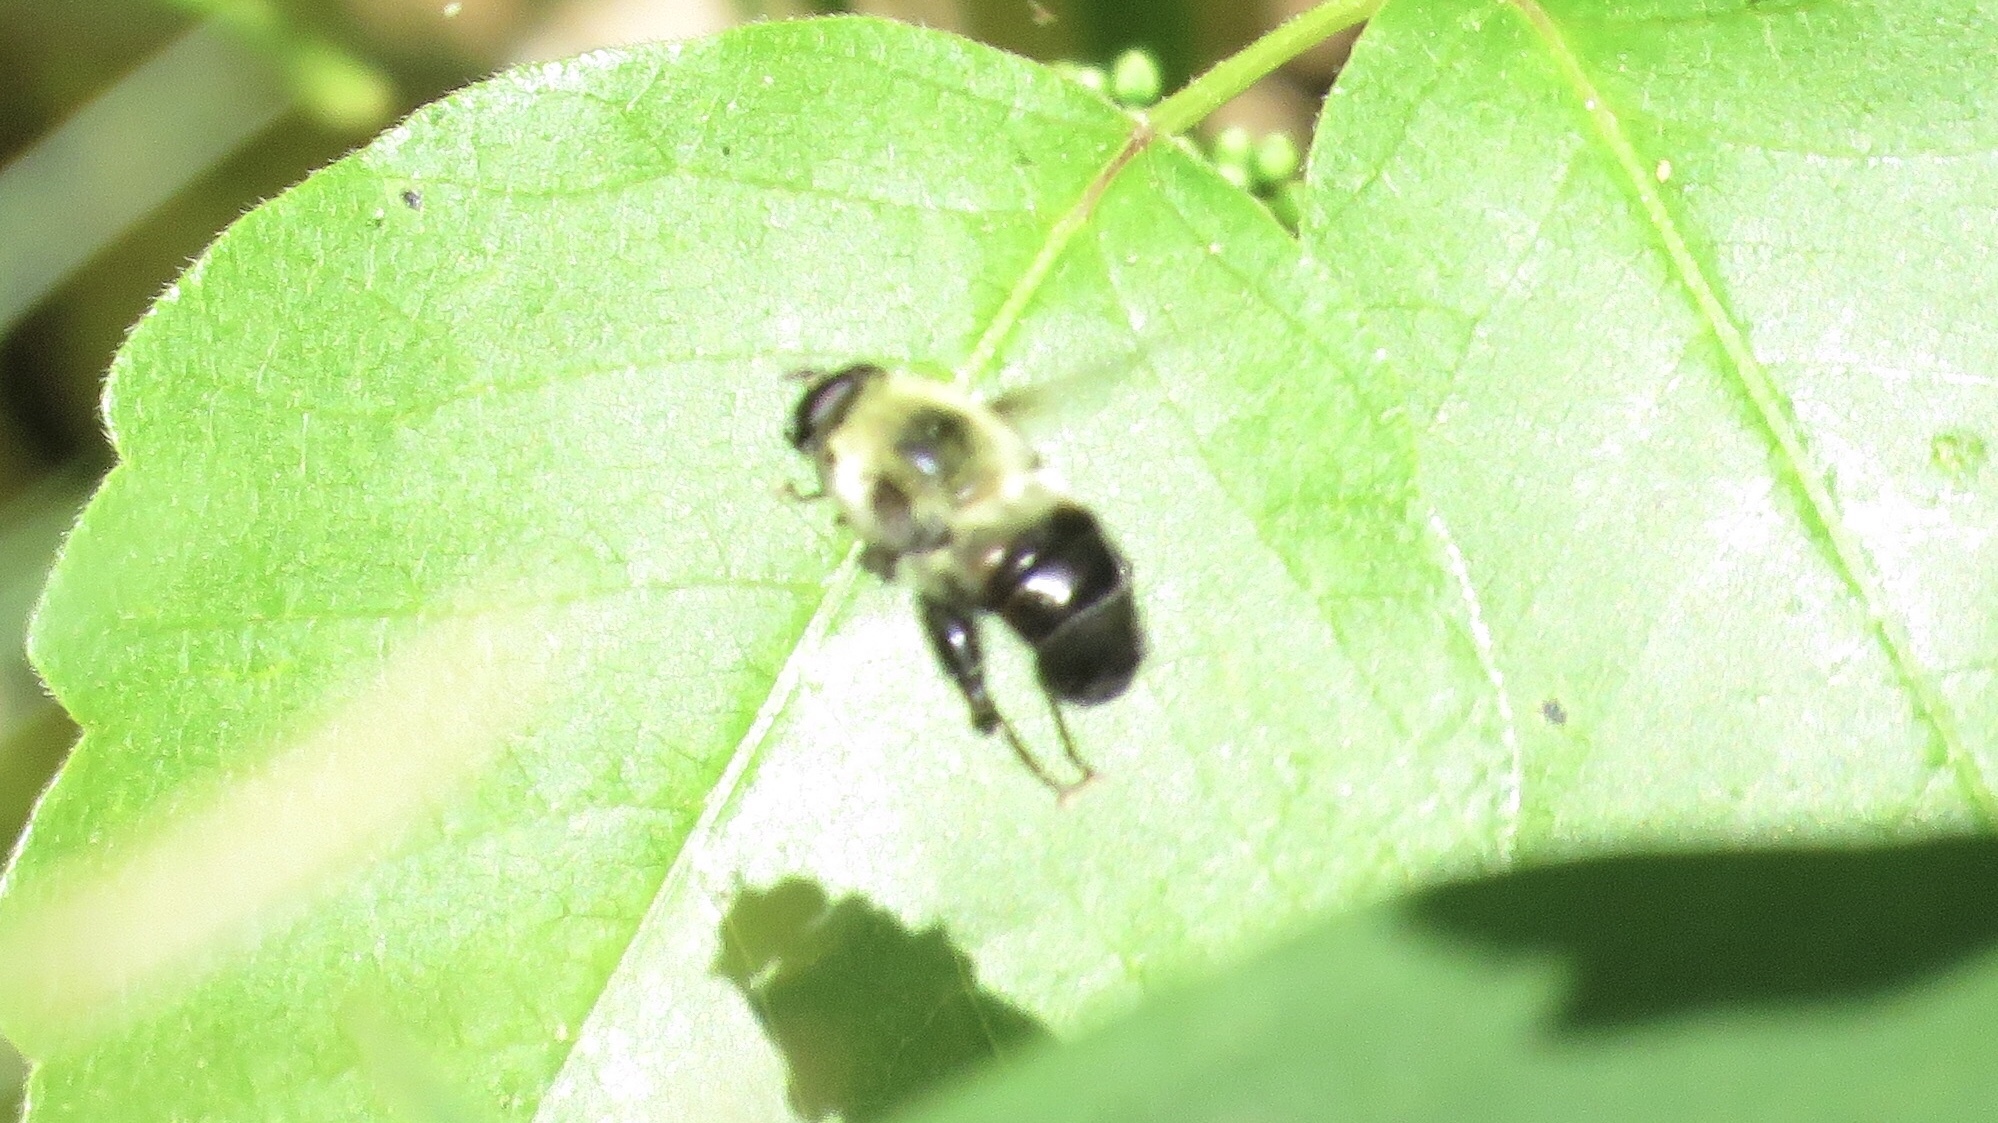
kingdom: Animalia
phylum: Arthropoda
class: Insecta
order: Diptera
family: Syrphidae
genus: Imatisma
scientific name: Imatisma posticata
